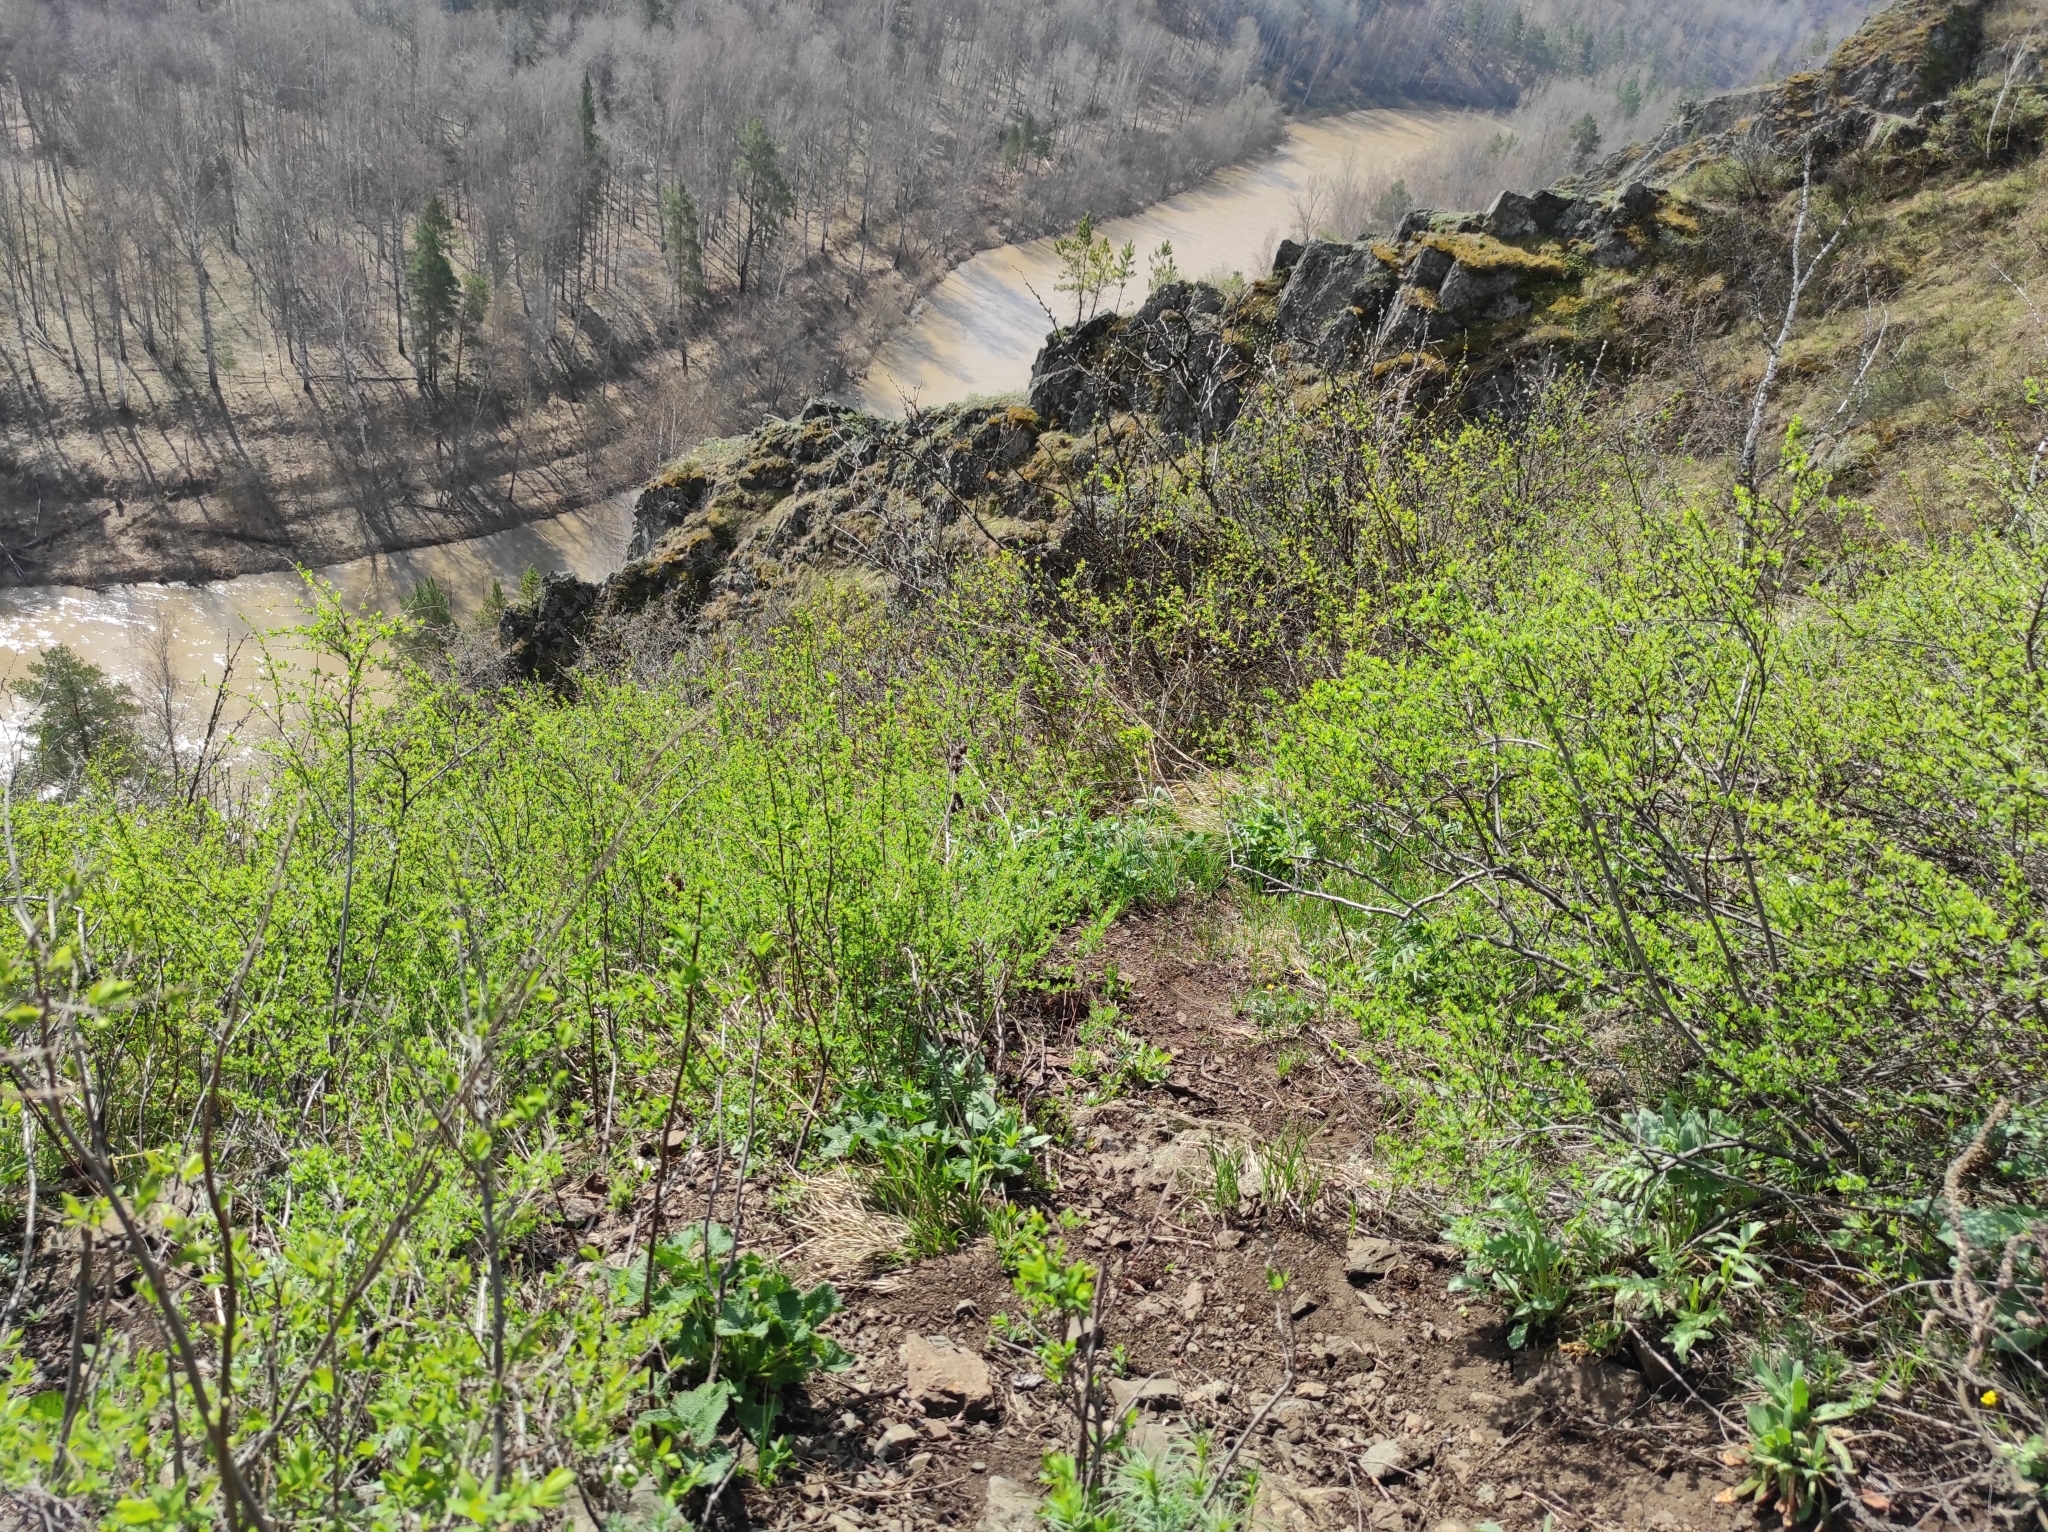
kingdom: Plantae
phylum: Tracheophyta
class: Pinopsida
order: Pinales
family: Pinaceae
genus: Pinus
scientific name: Pinus sylvestris
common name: Scots pine
